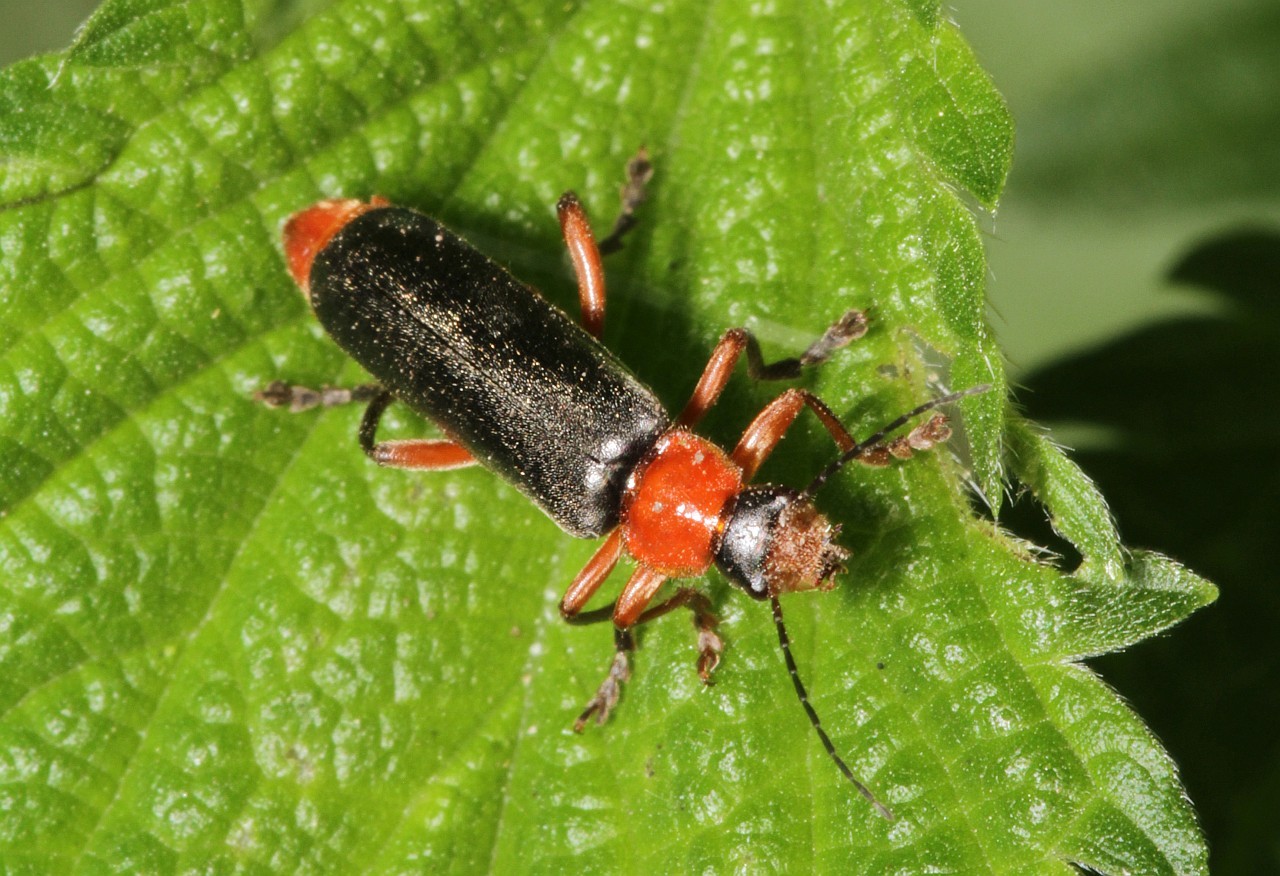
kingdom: Animalia
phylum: Arthropoda
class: Insecta
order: Coleoptera
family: Cantharidae
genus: Cantharis
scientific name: Cantharis pellucida
